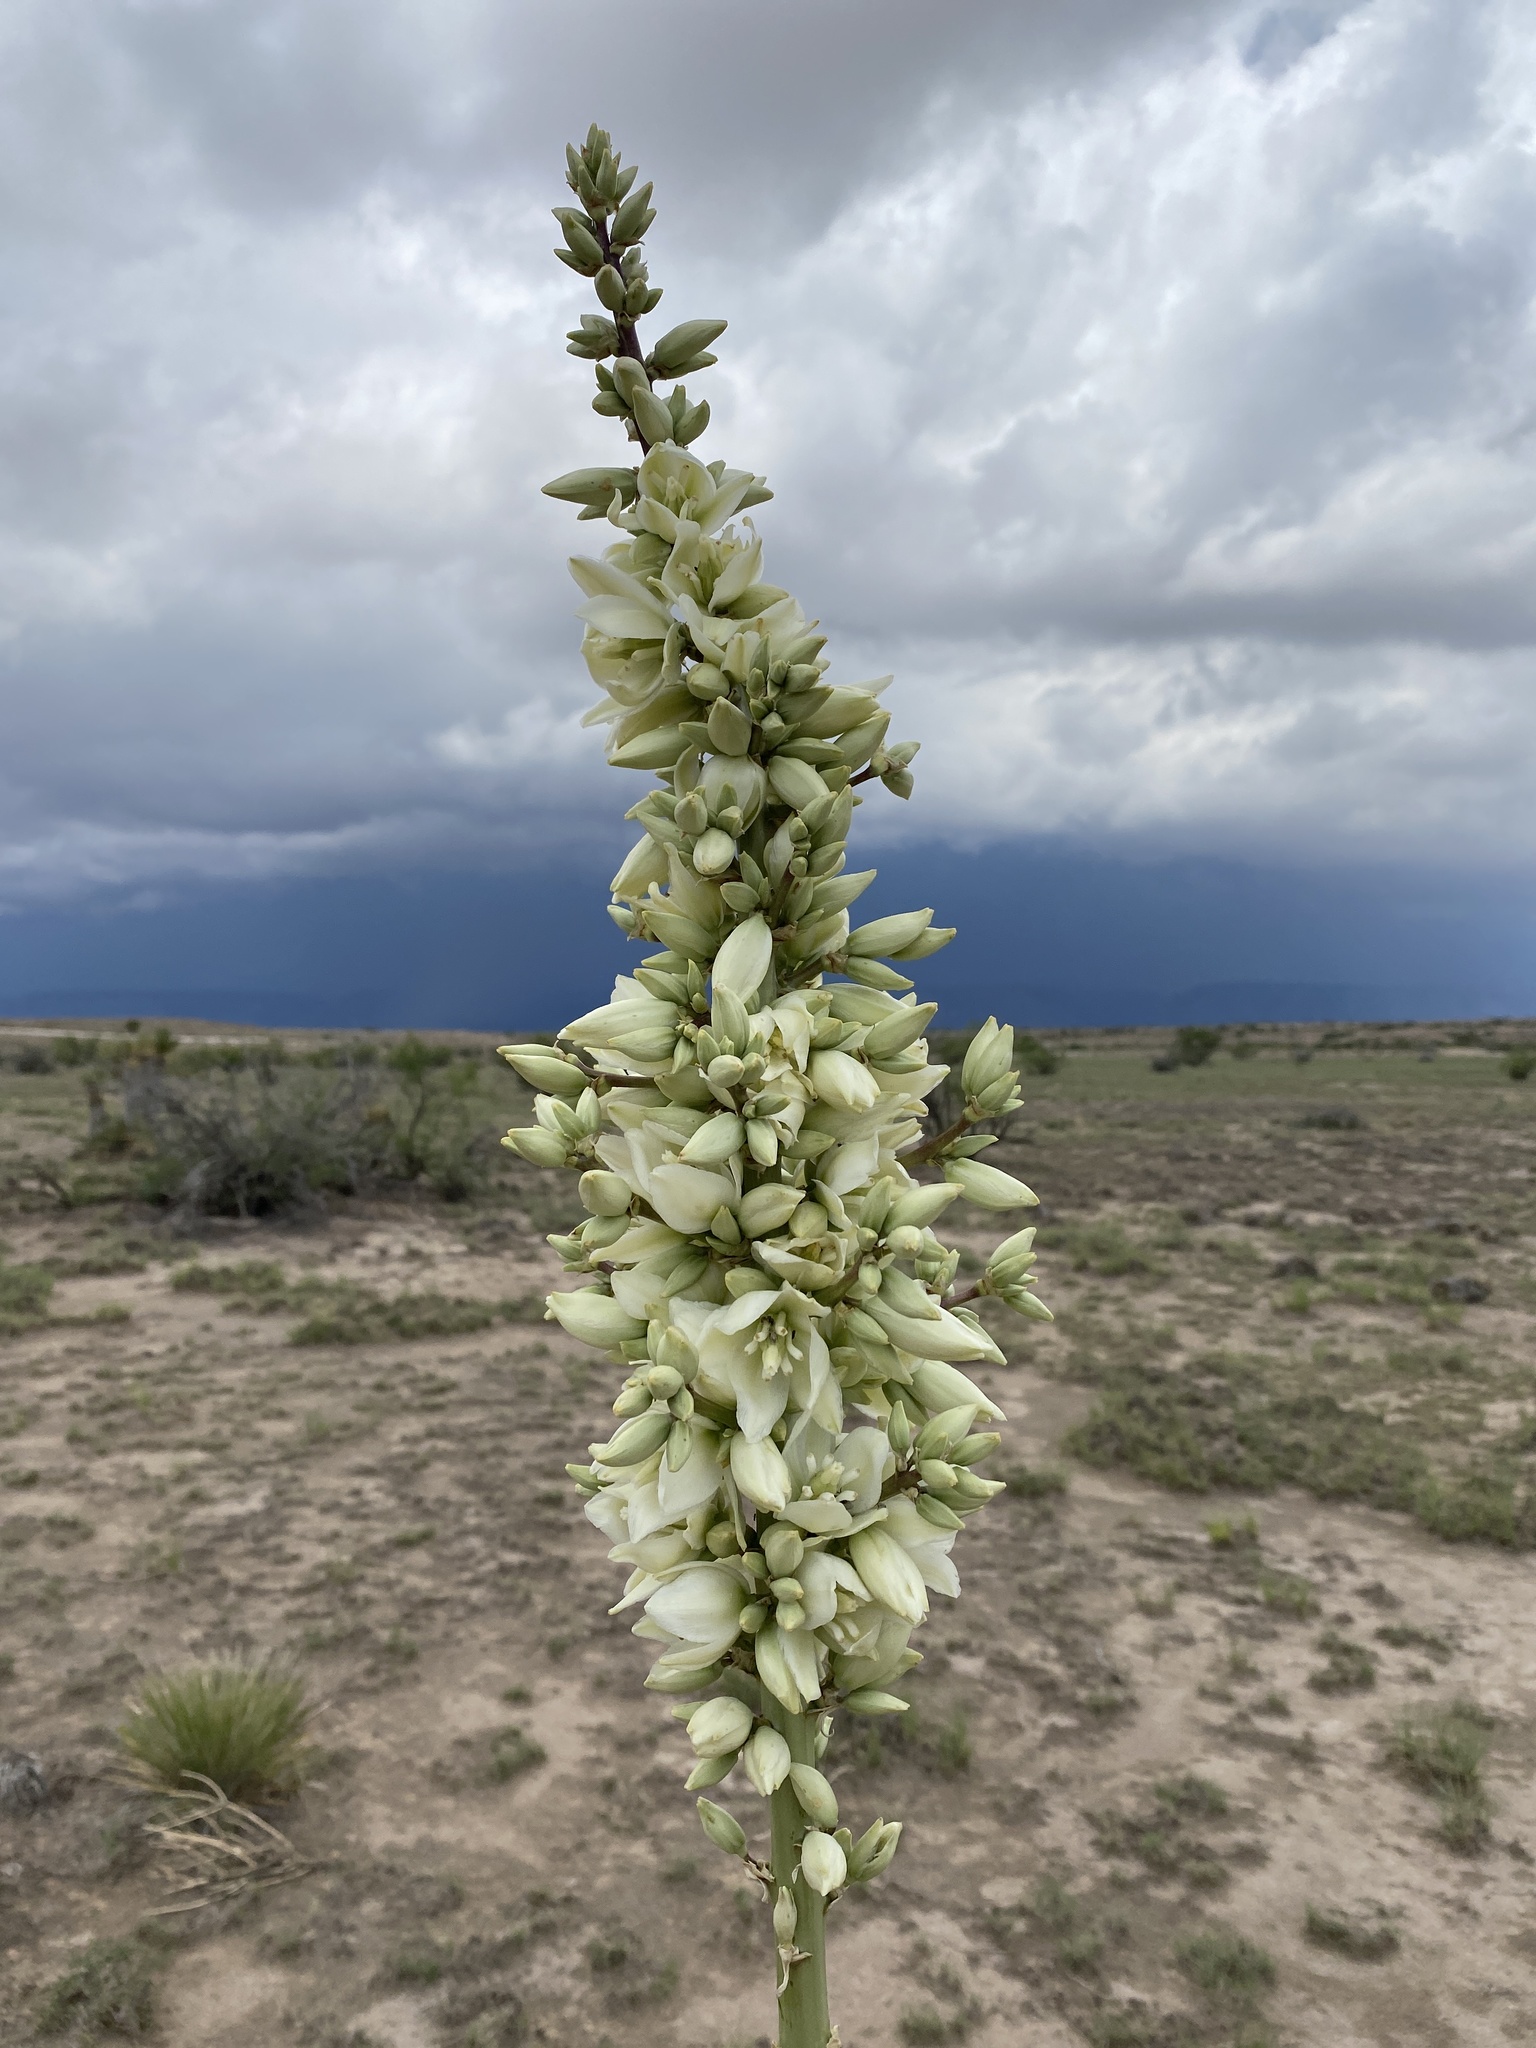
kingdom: Plantae
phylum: Tracheophyta
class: Liliopsida
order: Asparagales
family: Asparagaceae
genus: Yucca
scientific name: Yucca elata
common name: Palmella
